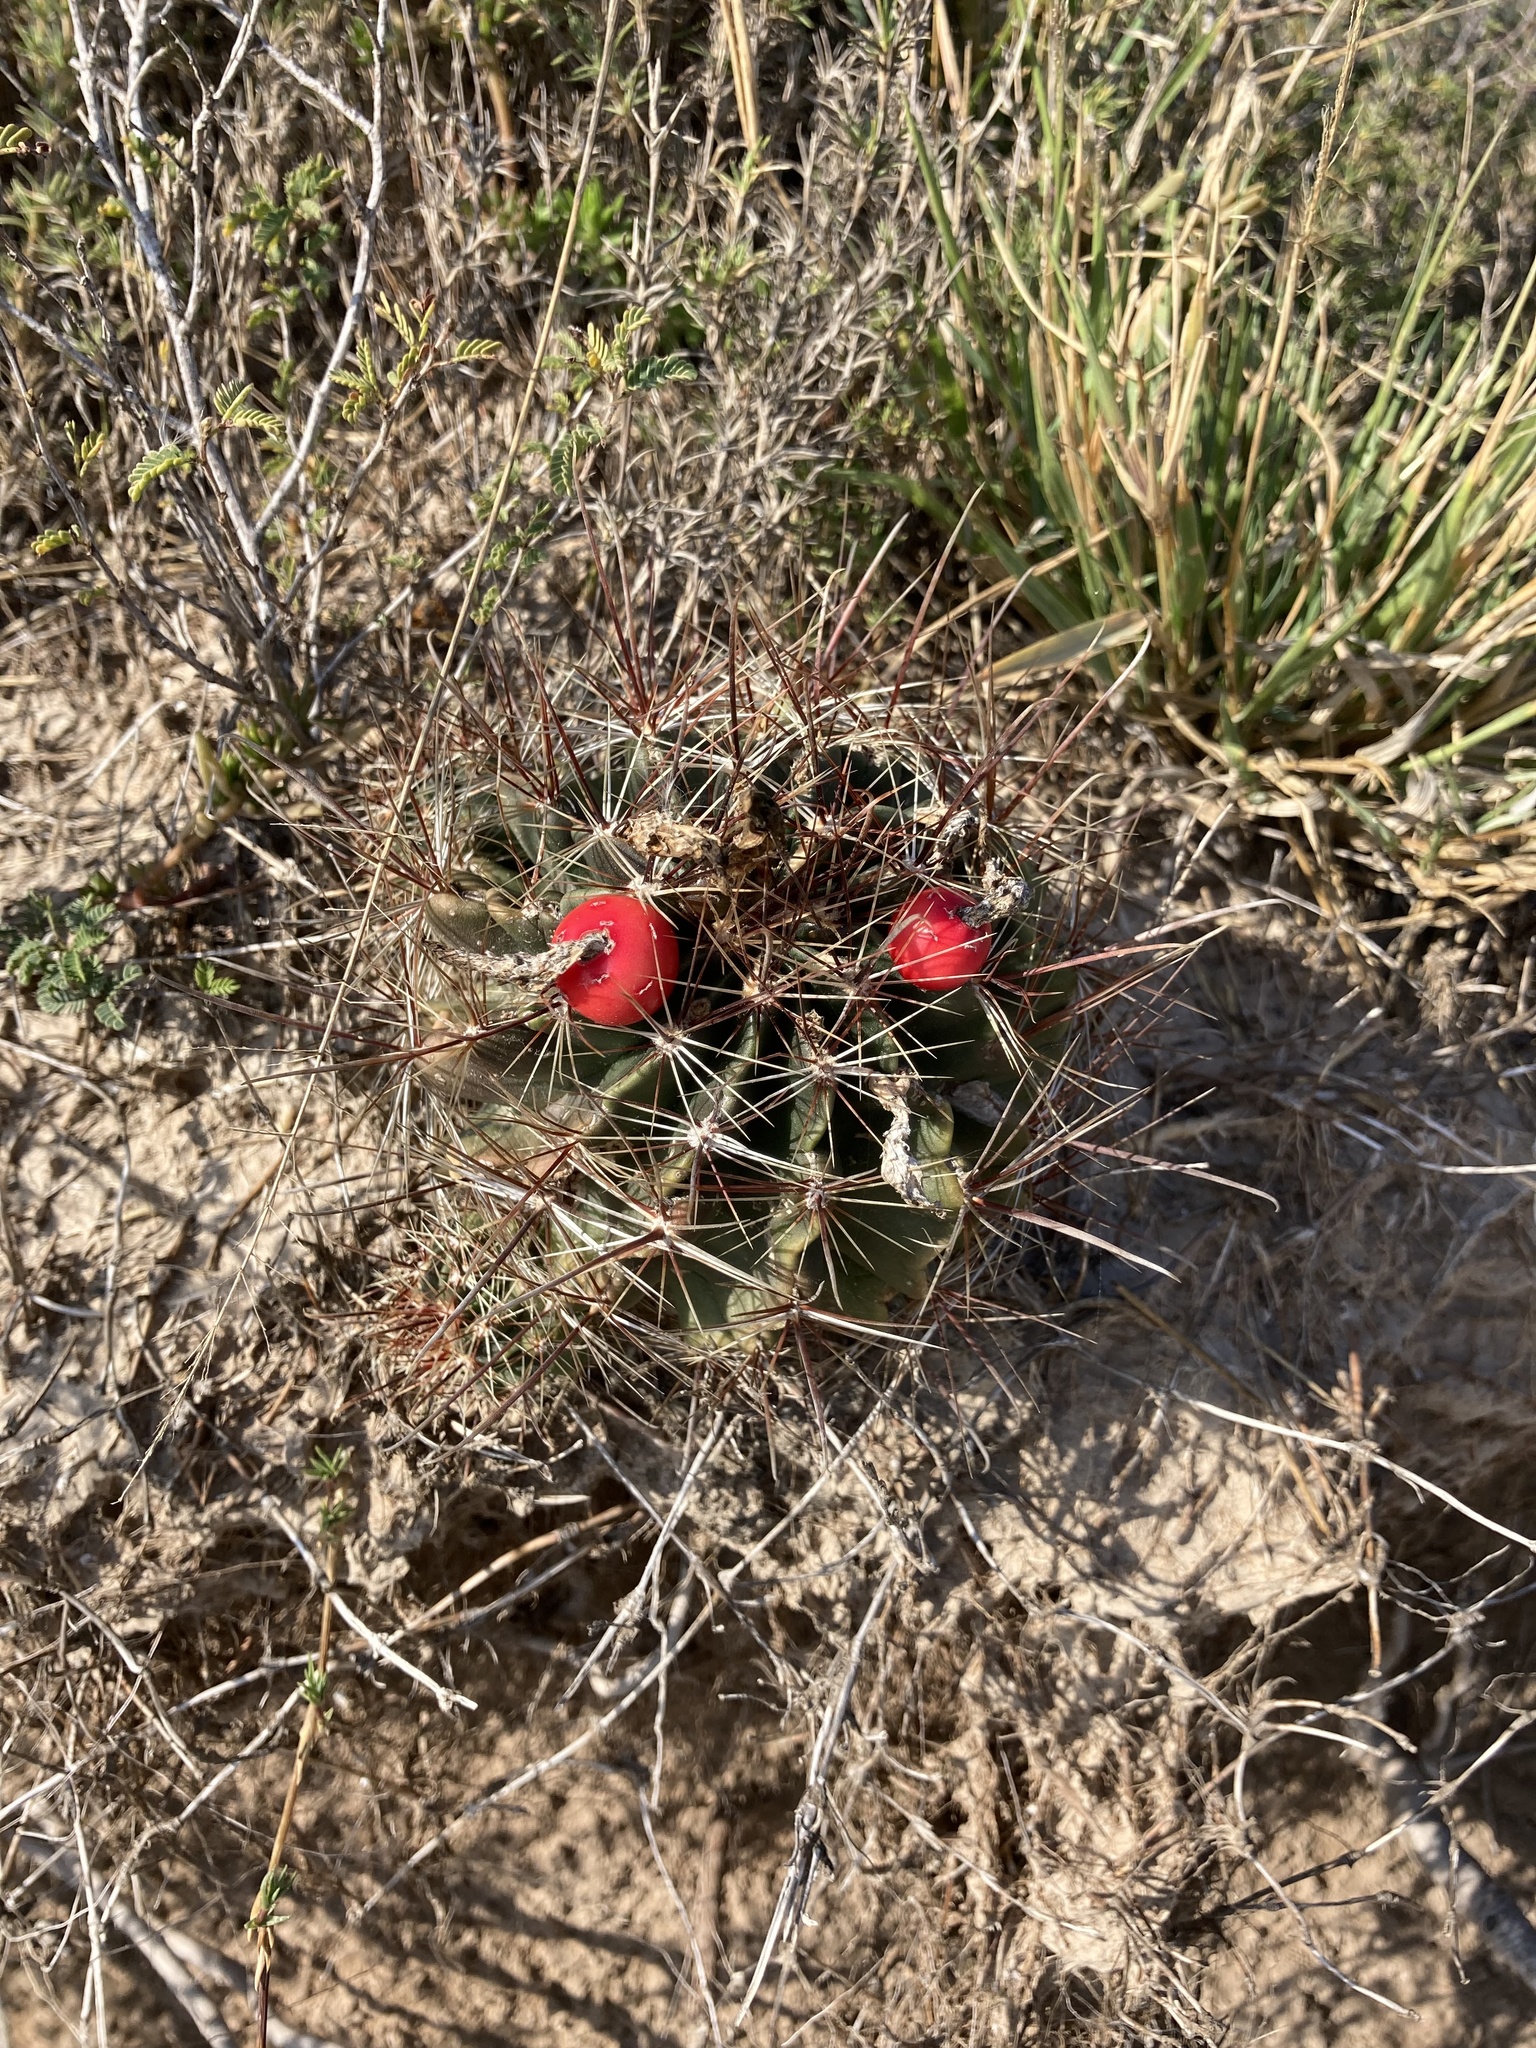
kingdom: Plantae
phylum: Tracheophyta
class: Magnoliopsida
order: Caryophyllales
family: Cactaceae
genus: Thelocactus
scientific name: Thelocactus setispinus
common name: Miniature barrel cactus
